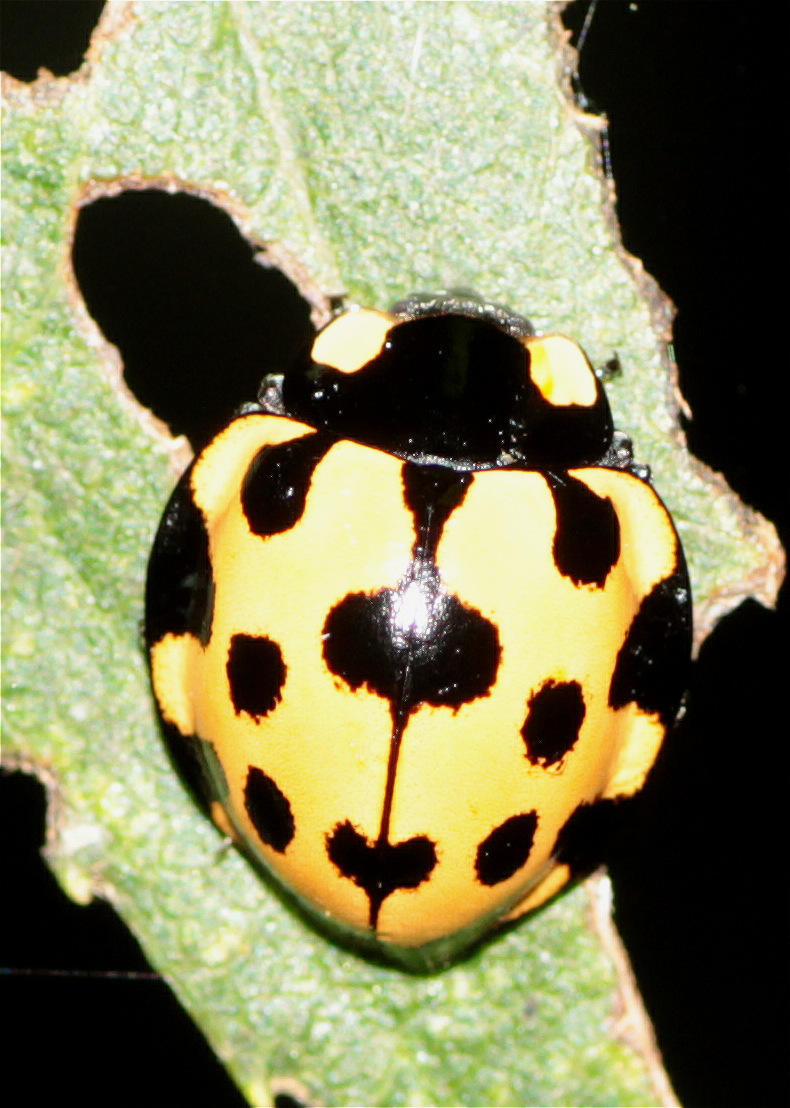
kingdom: Animalia
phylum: Arthropoda
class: Insecta
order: Coleoptera
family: Coccinellidae
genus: Anatis
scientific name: Anatis
